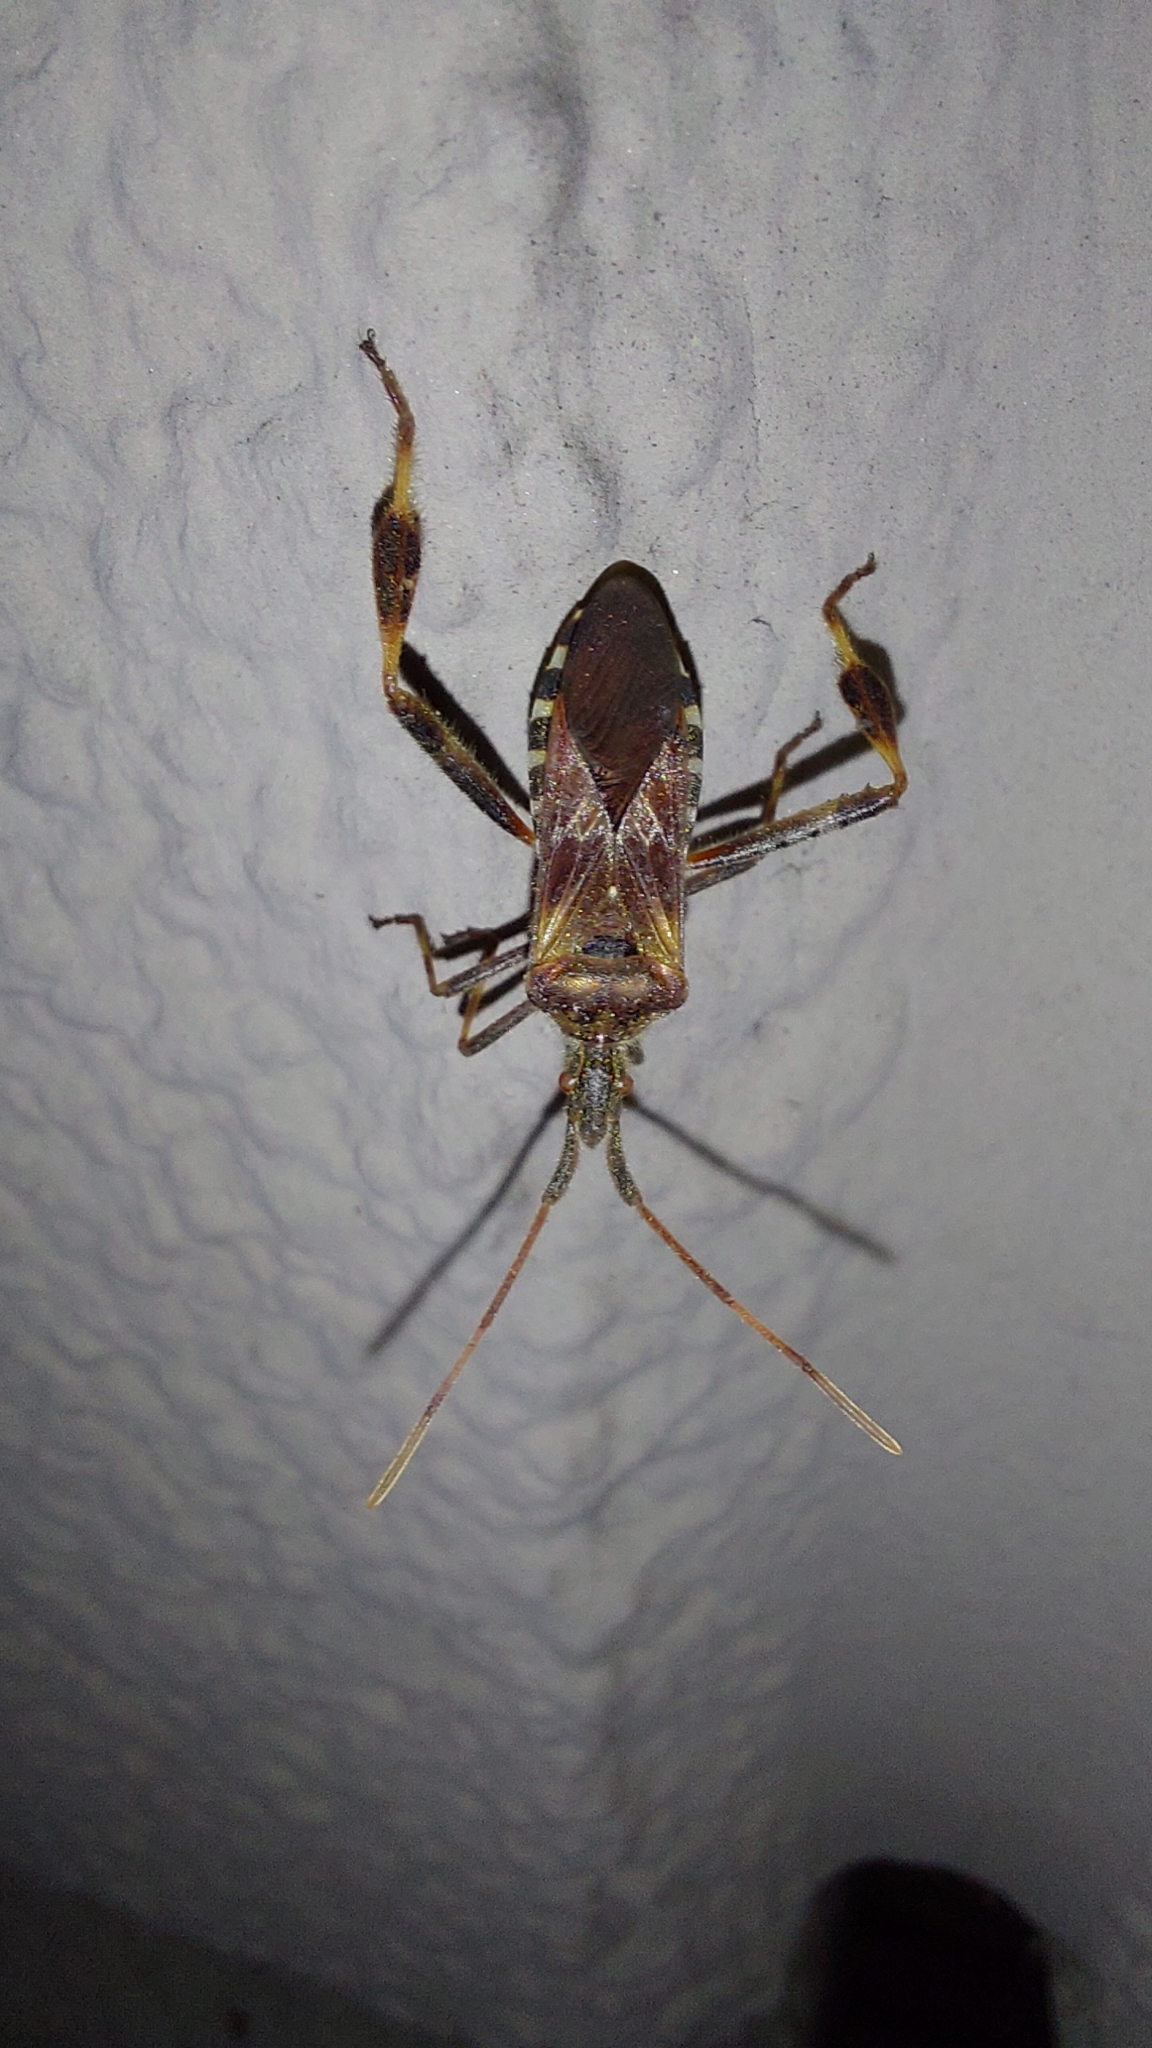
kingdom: Animalia
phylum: Arthropoda
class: Insecta
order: Hemiptera
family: Coreidae
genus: Leptoglossus
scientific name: Leptoglossus occidentalis
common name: Western conifer-seed bug
